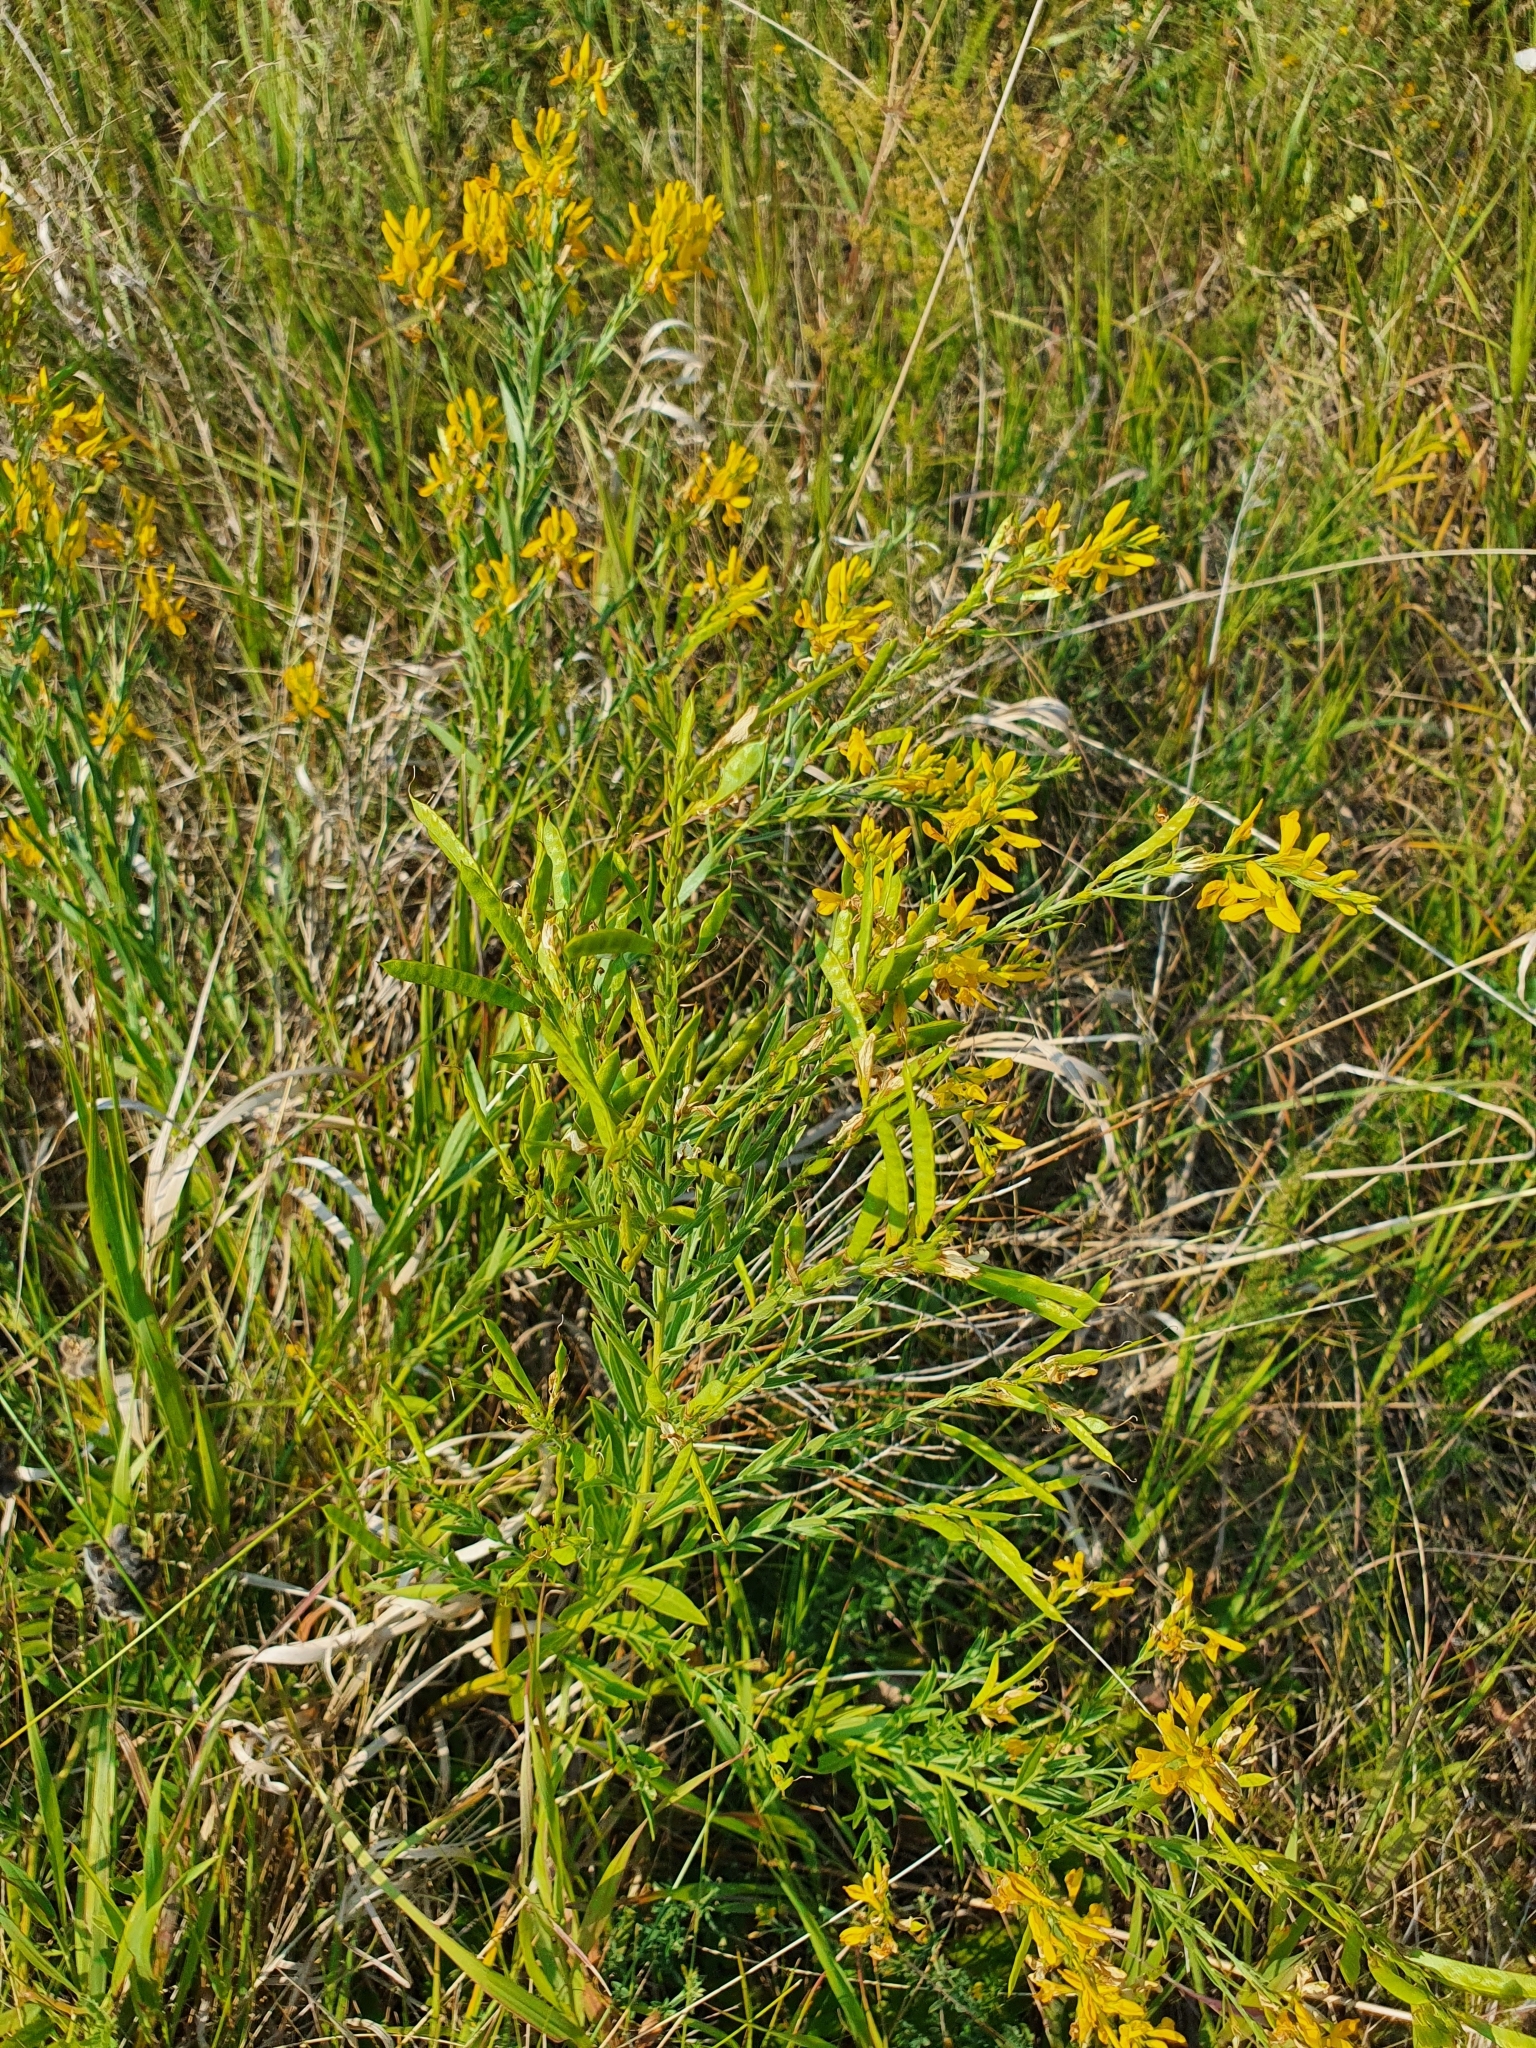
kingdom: Plantae
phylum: Tracheophyta
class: Magnoliopsida
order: Fabales
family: Fabaceae
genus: Genista
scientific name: Genista tinctoria
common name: Dyer's greenweed
